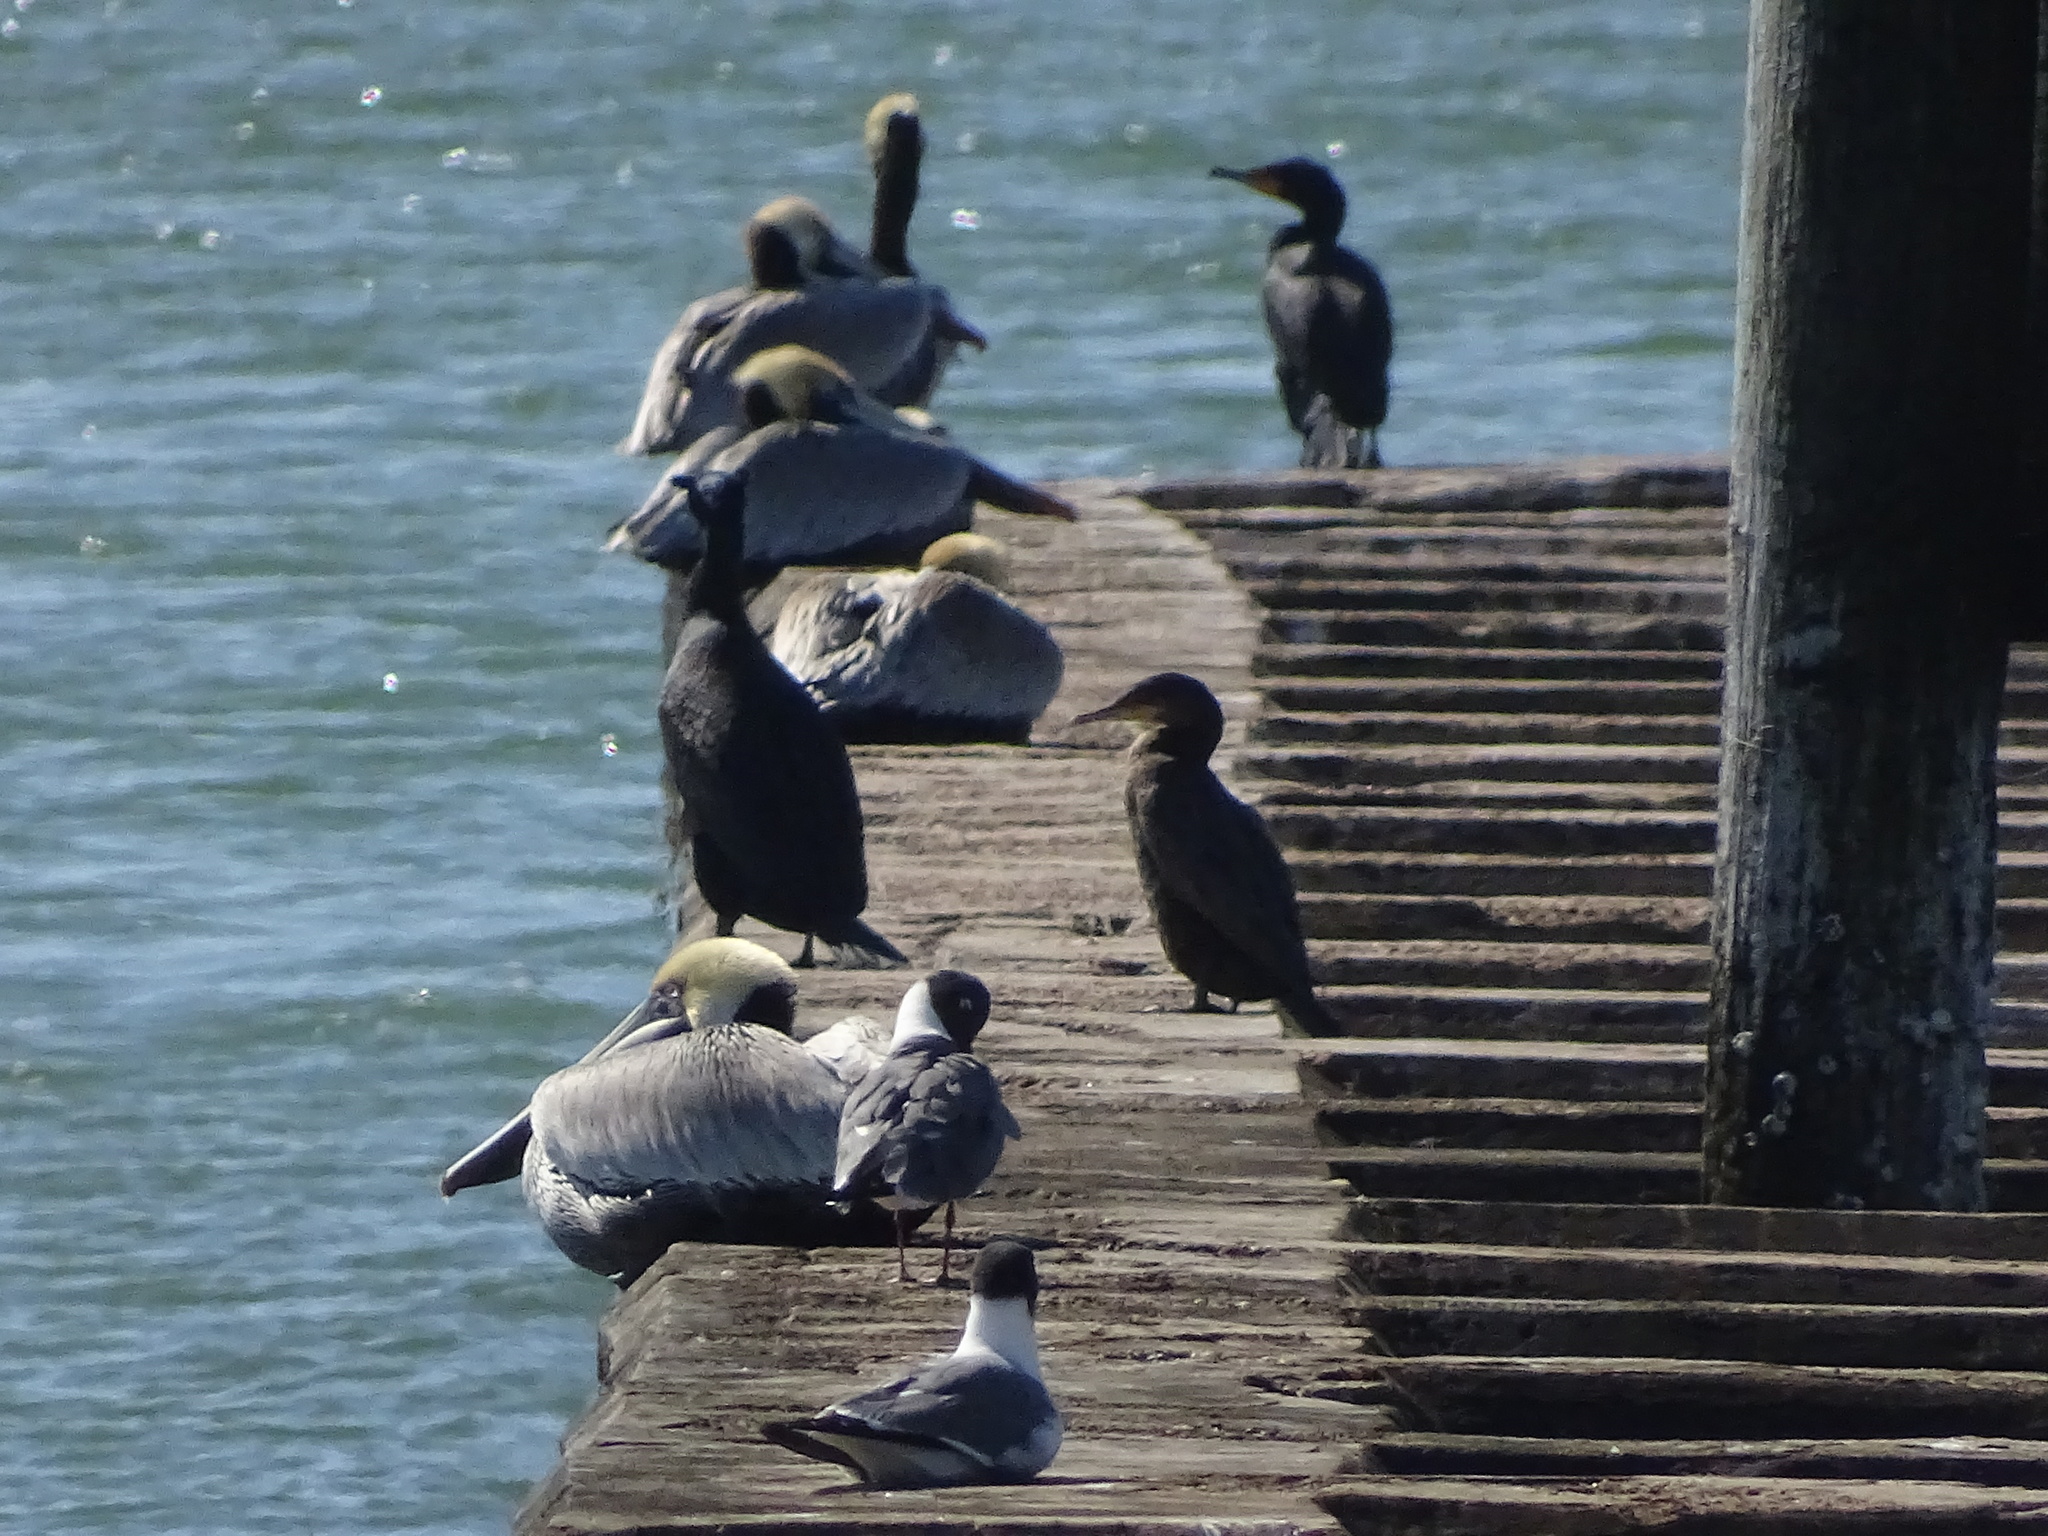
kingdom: Animalia
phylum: Chordata
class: Aves
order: Pelecaniformes
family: Pelecanidae
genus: Pelecanus
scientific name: Pelecanus occidentalis
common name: Brown pelican
